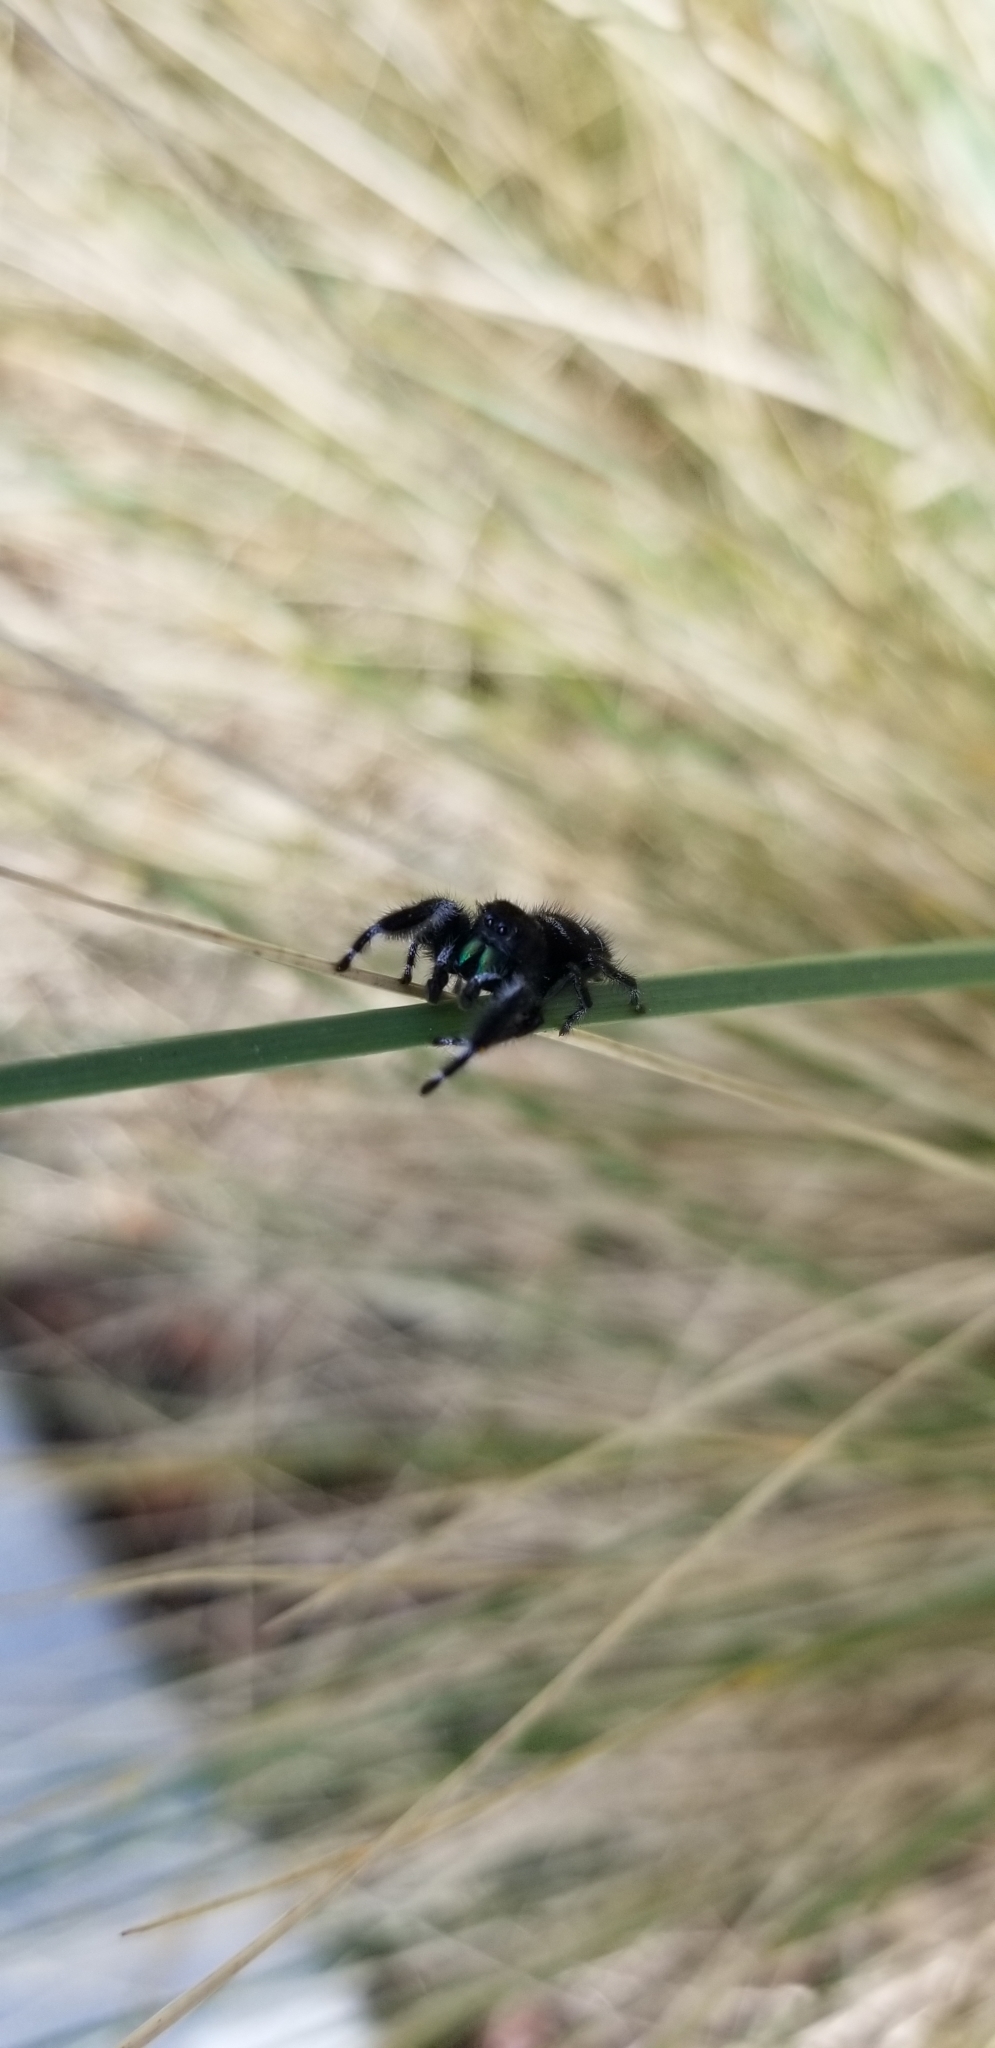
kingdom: Animalia
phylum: Arthropoda
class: Arachnida
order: Araneae
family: Salticidae
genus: Phidippus
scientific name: Phidippus audax
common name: Bold jumper
